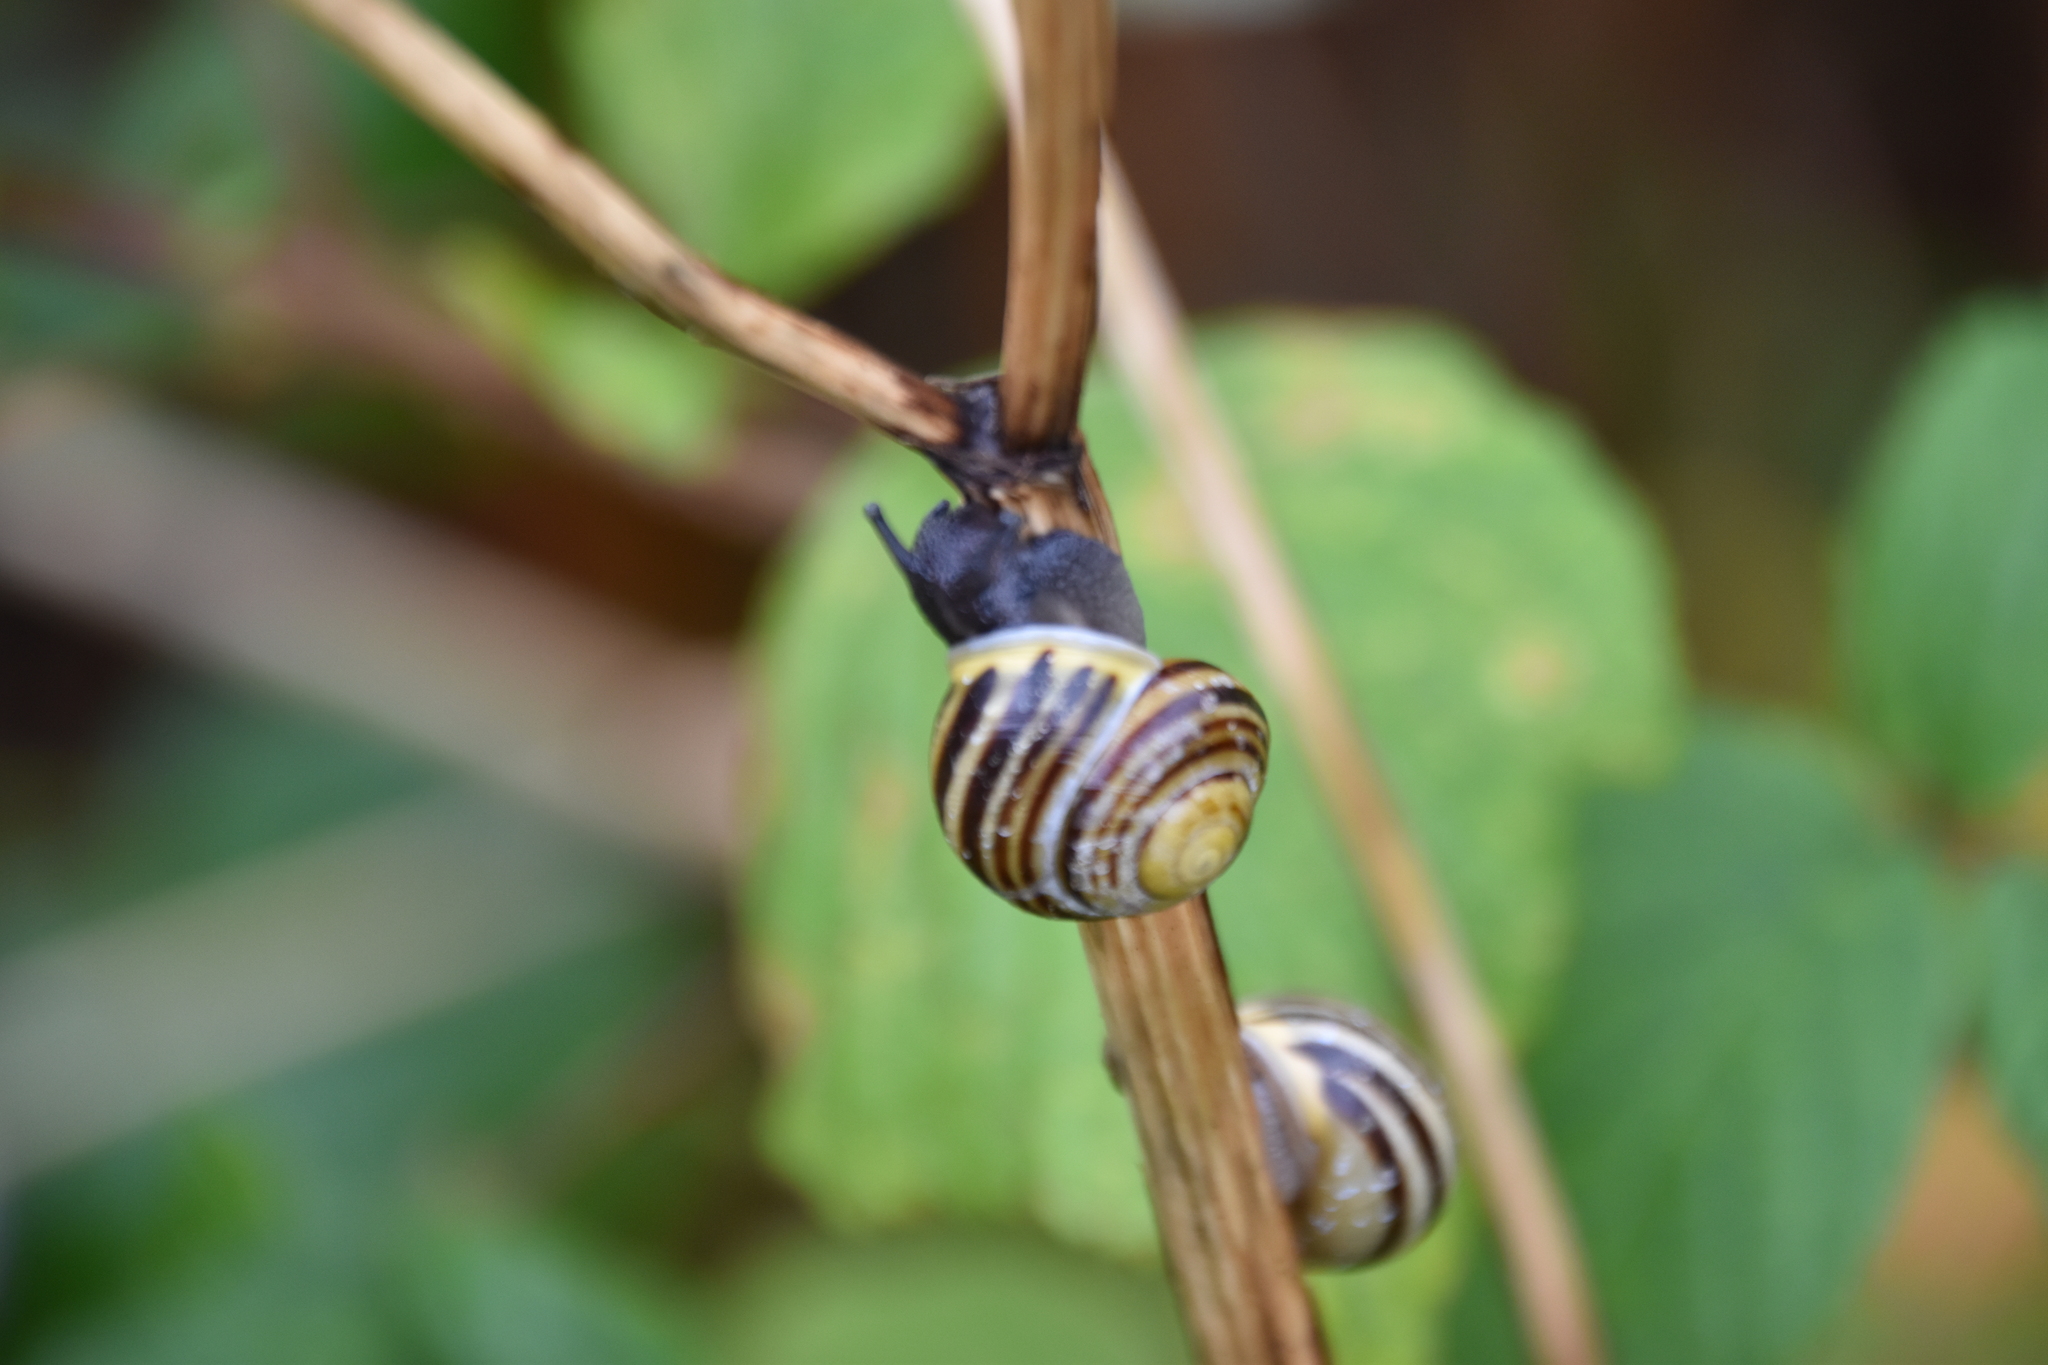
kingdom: Animalia
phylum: Mollusca
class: Gastropoda
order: Stylommatophora
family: Helicidae
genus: Cepaea
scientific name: Cepaea hortensis
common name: White-lip gardensnail
